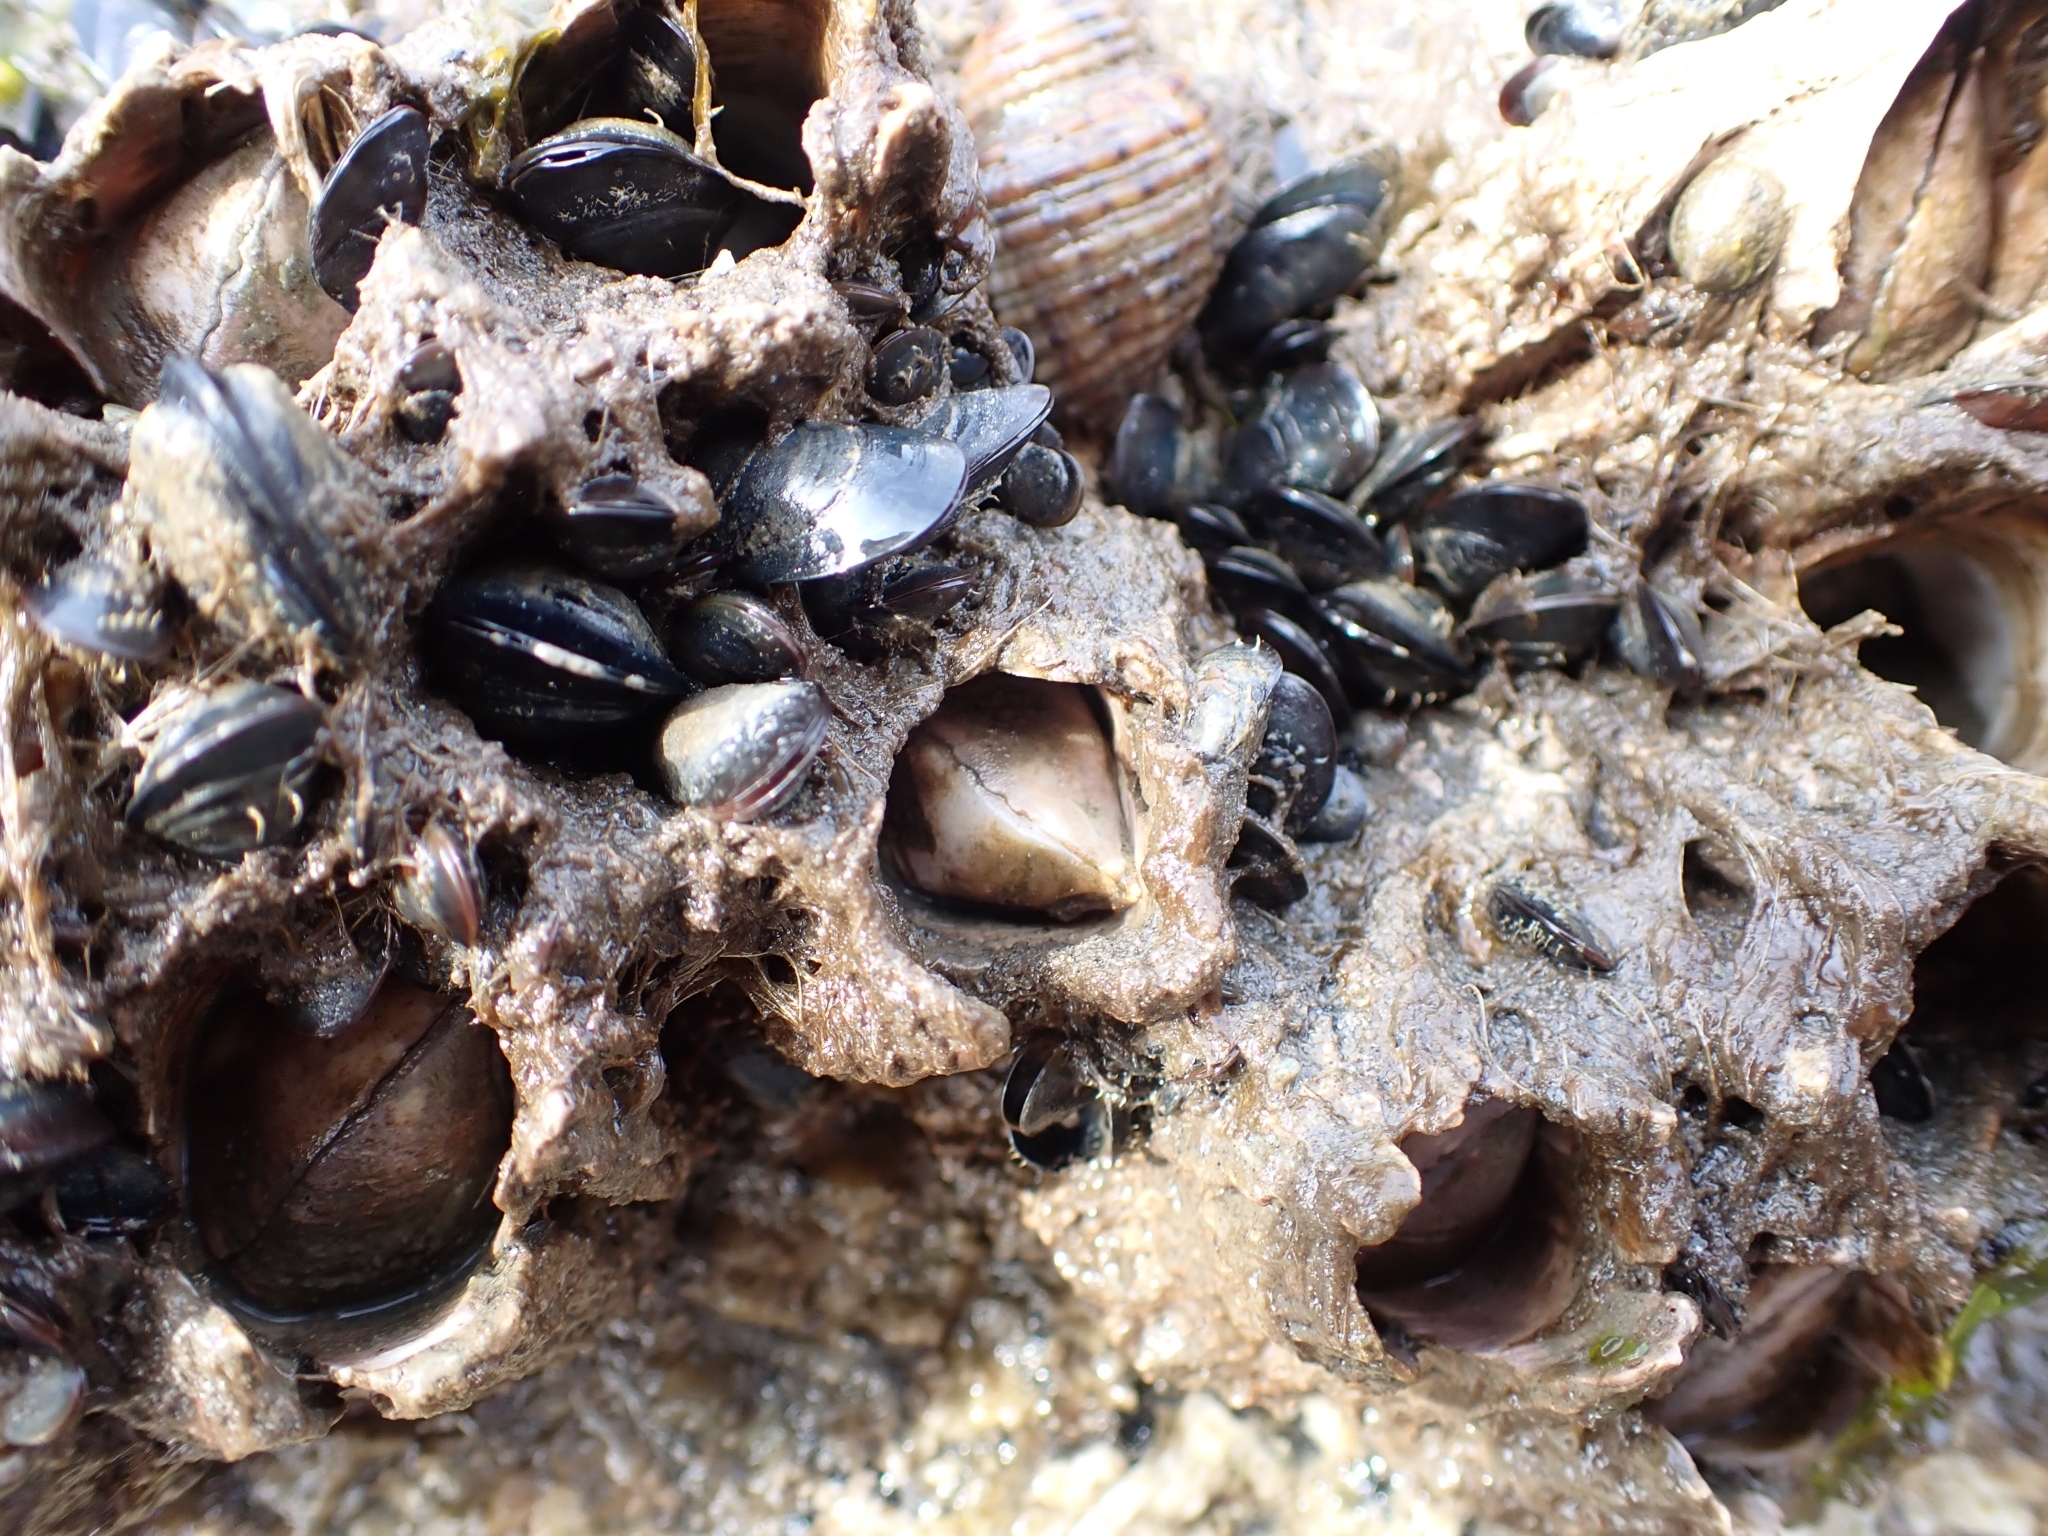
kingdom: Animalia
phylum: Arthropoda
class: Maxillopoda
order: Sessilia
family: Archaeobalanidae
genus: Semibalanus
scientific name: Semibalanus cariosus
